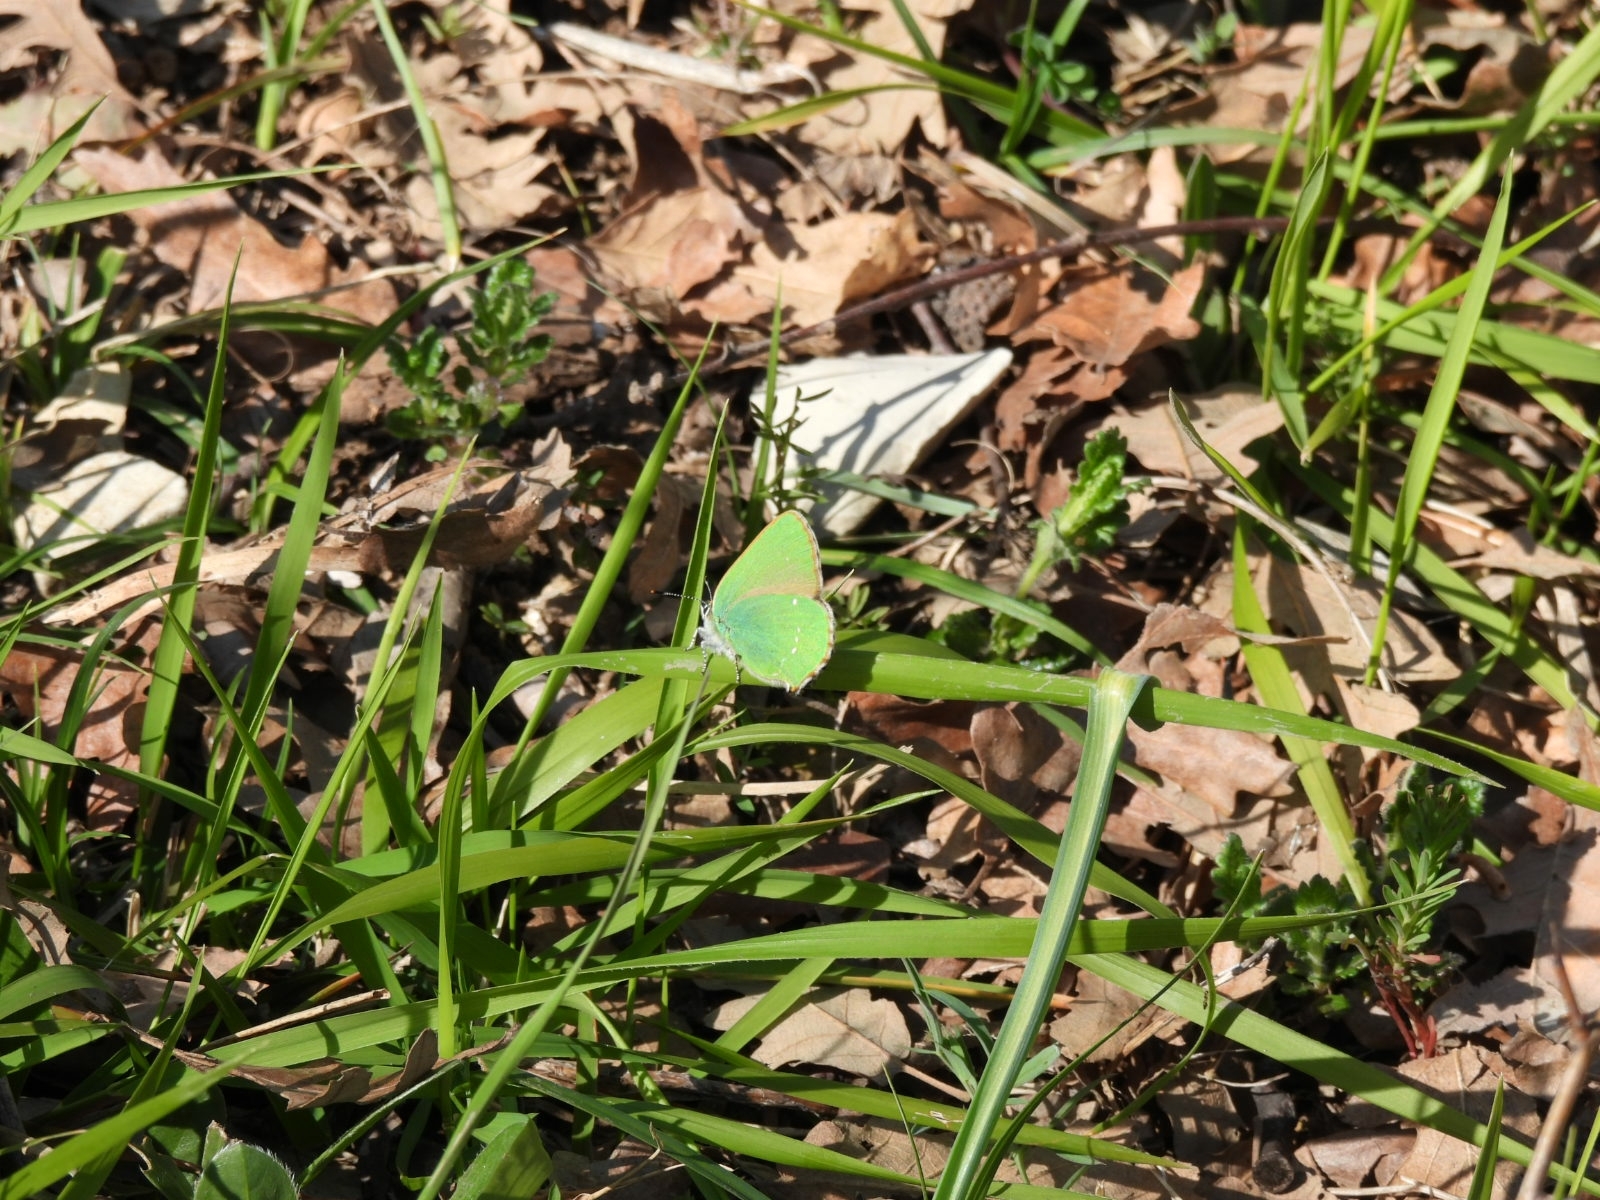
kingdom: Animalia
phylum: Arthropoda
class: Insecta
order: Lepidoptera
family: Lycaenidae
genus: Callophrys
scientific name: Callophrys rubi
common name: Green hairstreak
